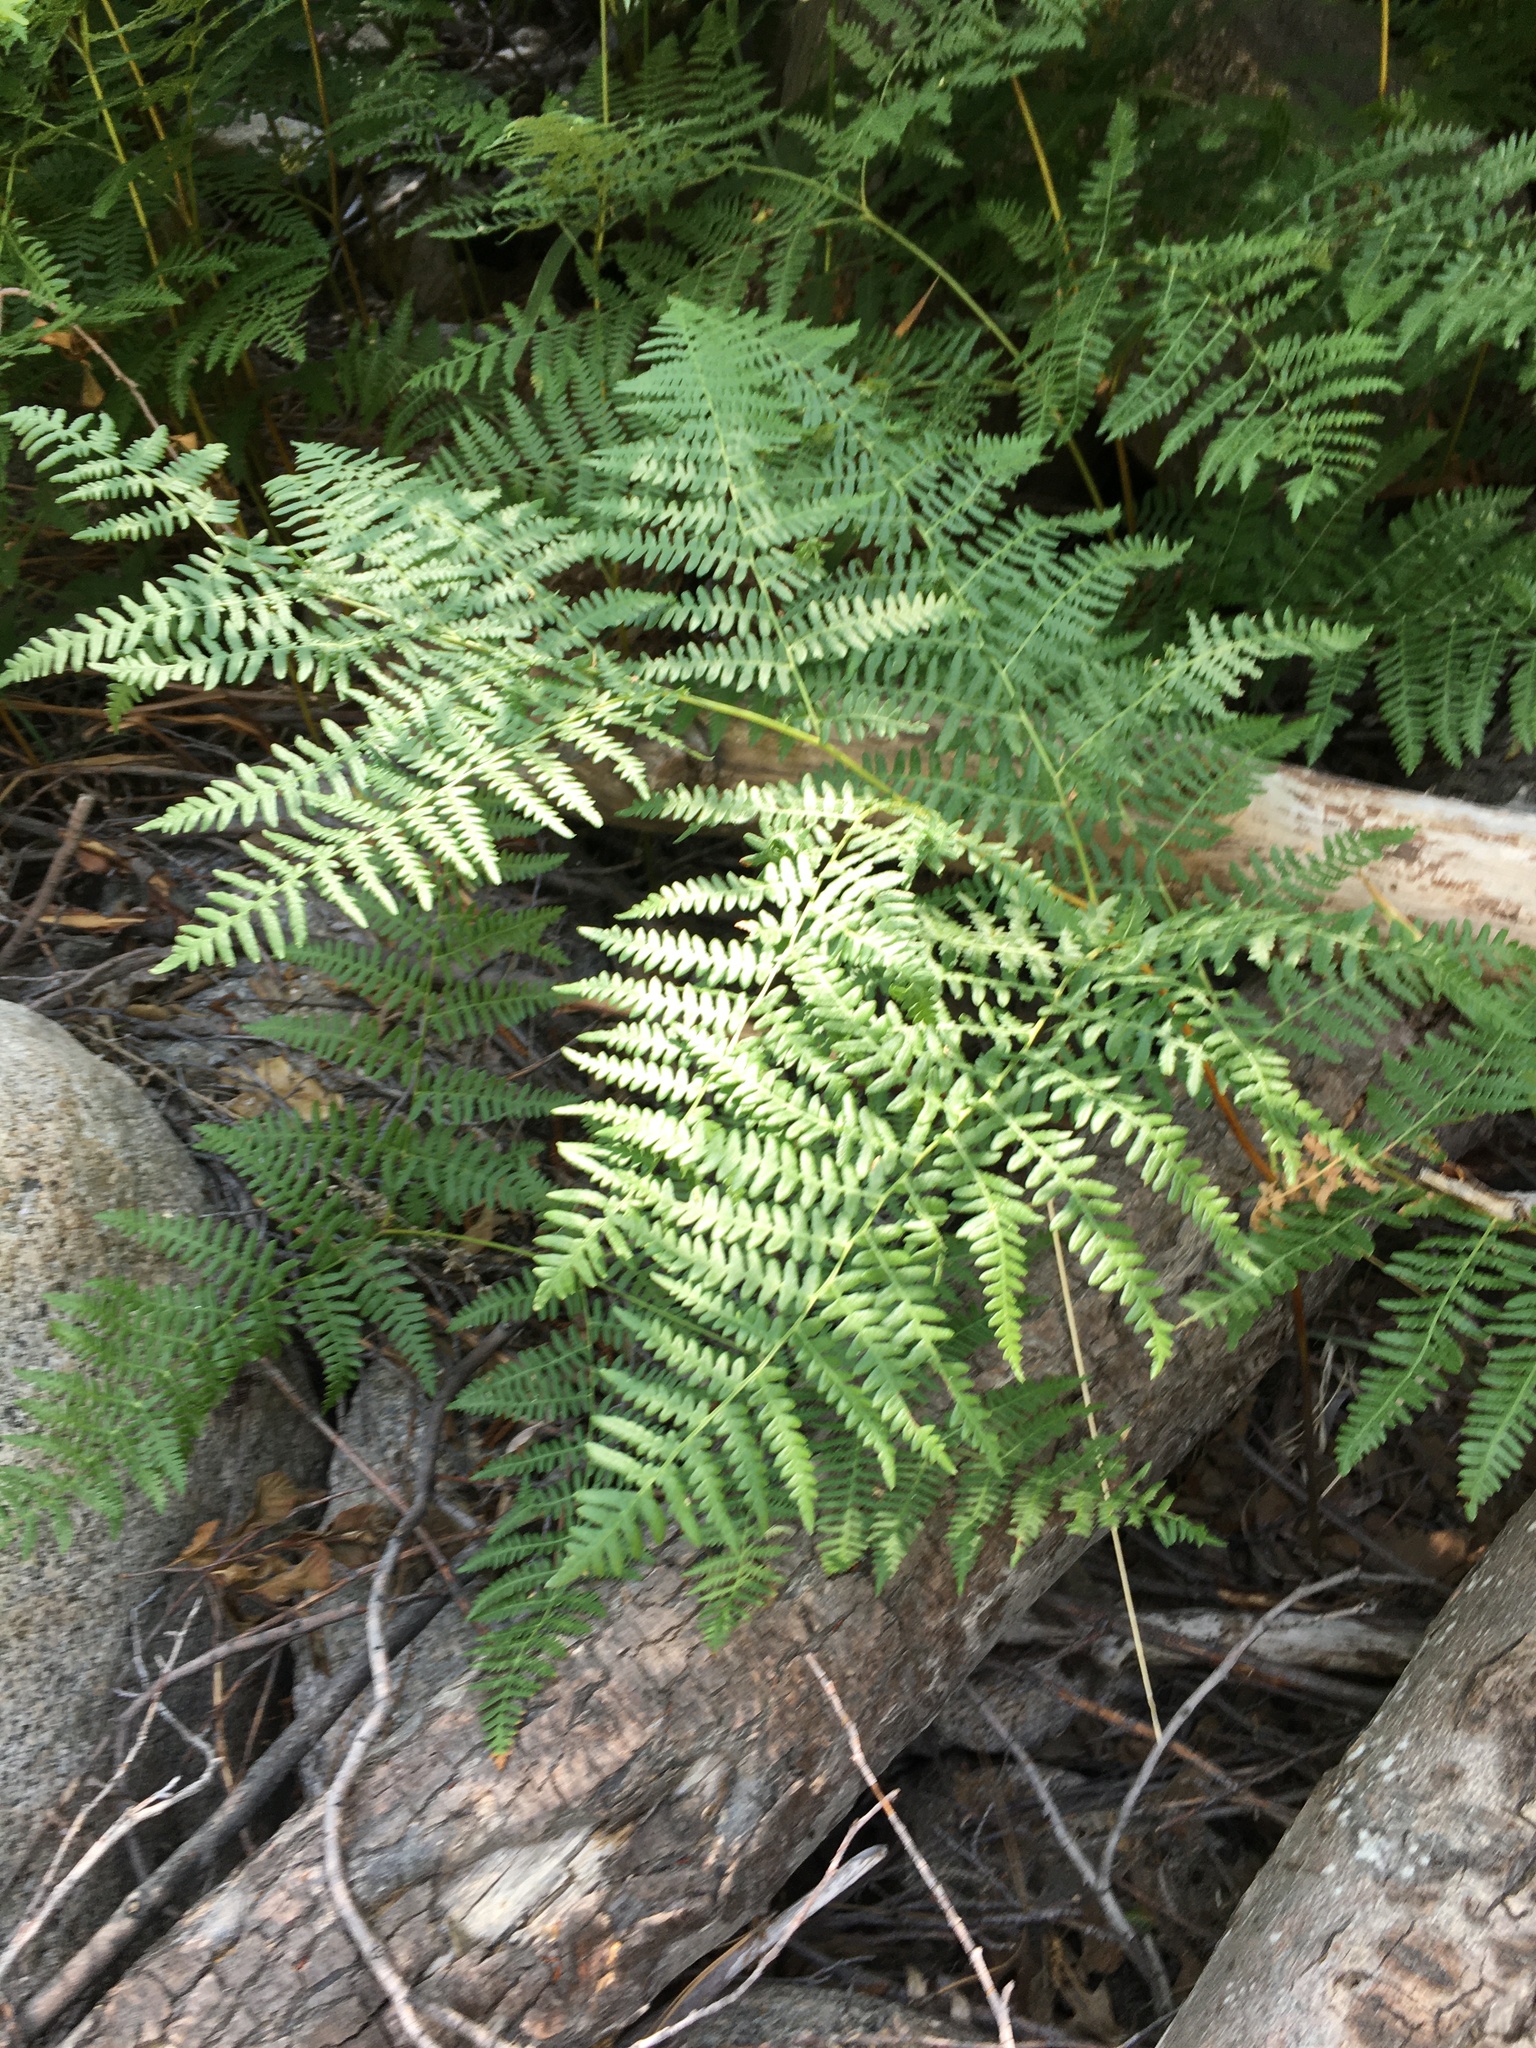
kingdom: Plantae
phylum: Tracheophyta
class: Polypodiopsida
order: Polypodiales
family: Dennstaedtiaceae
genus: Pteridium
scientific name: Pteridium aquilinum
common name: Bracken
